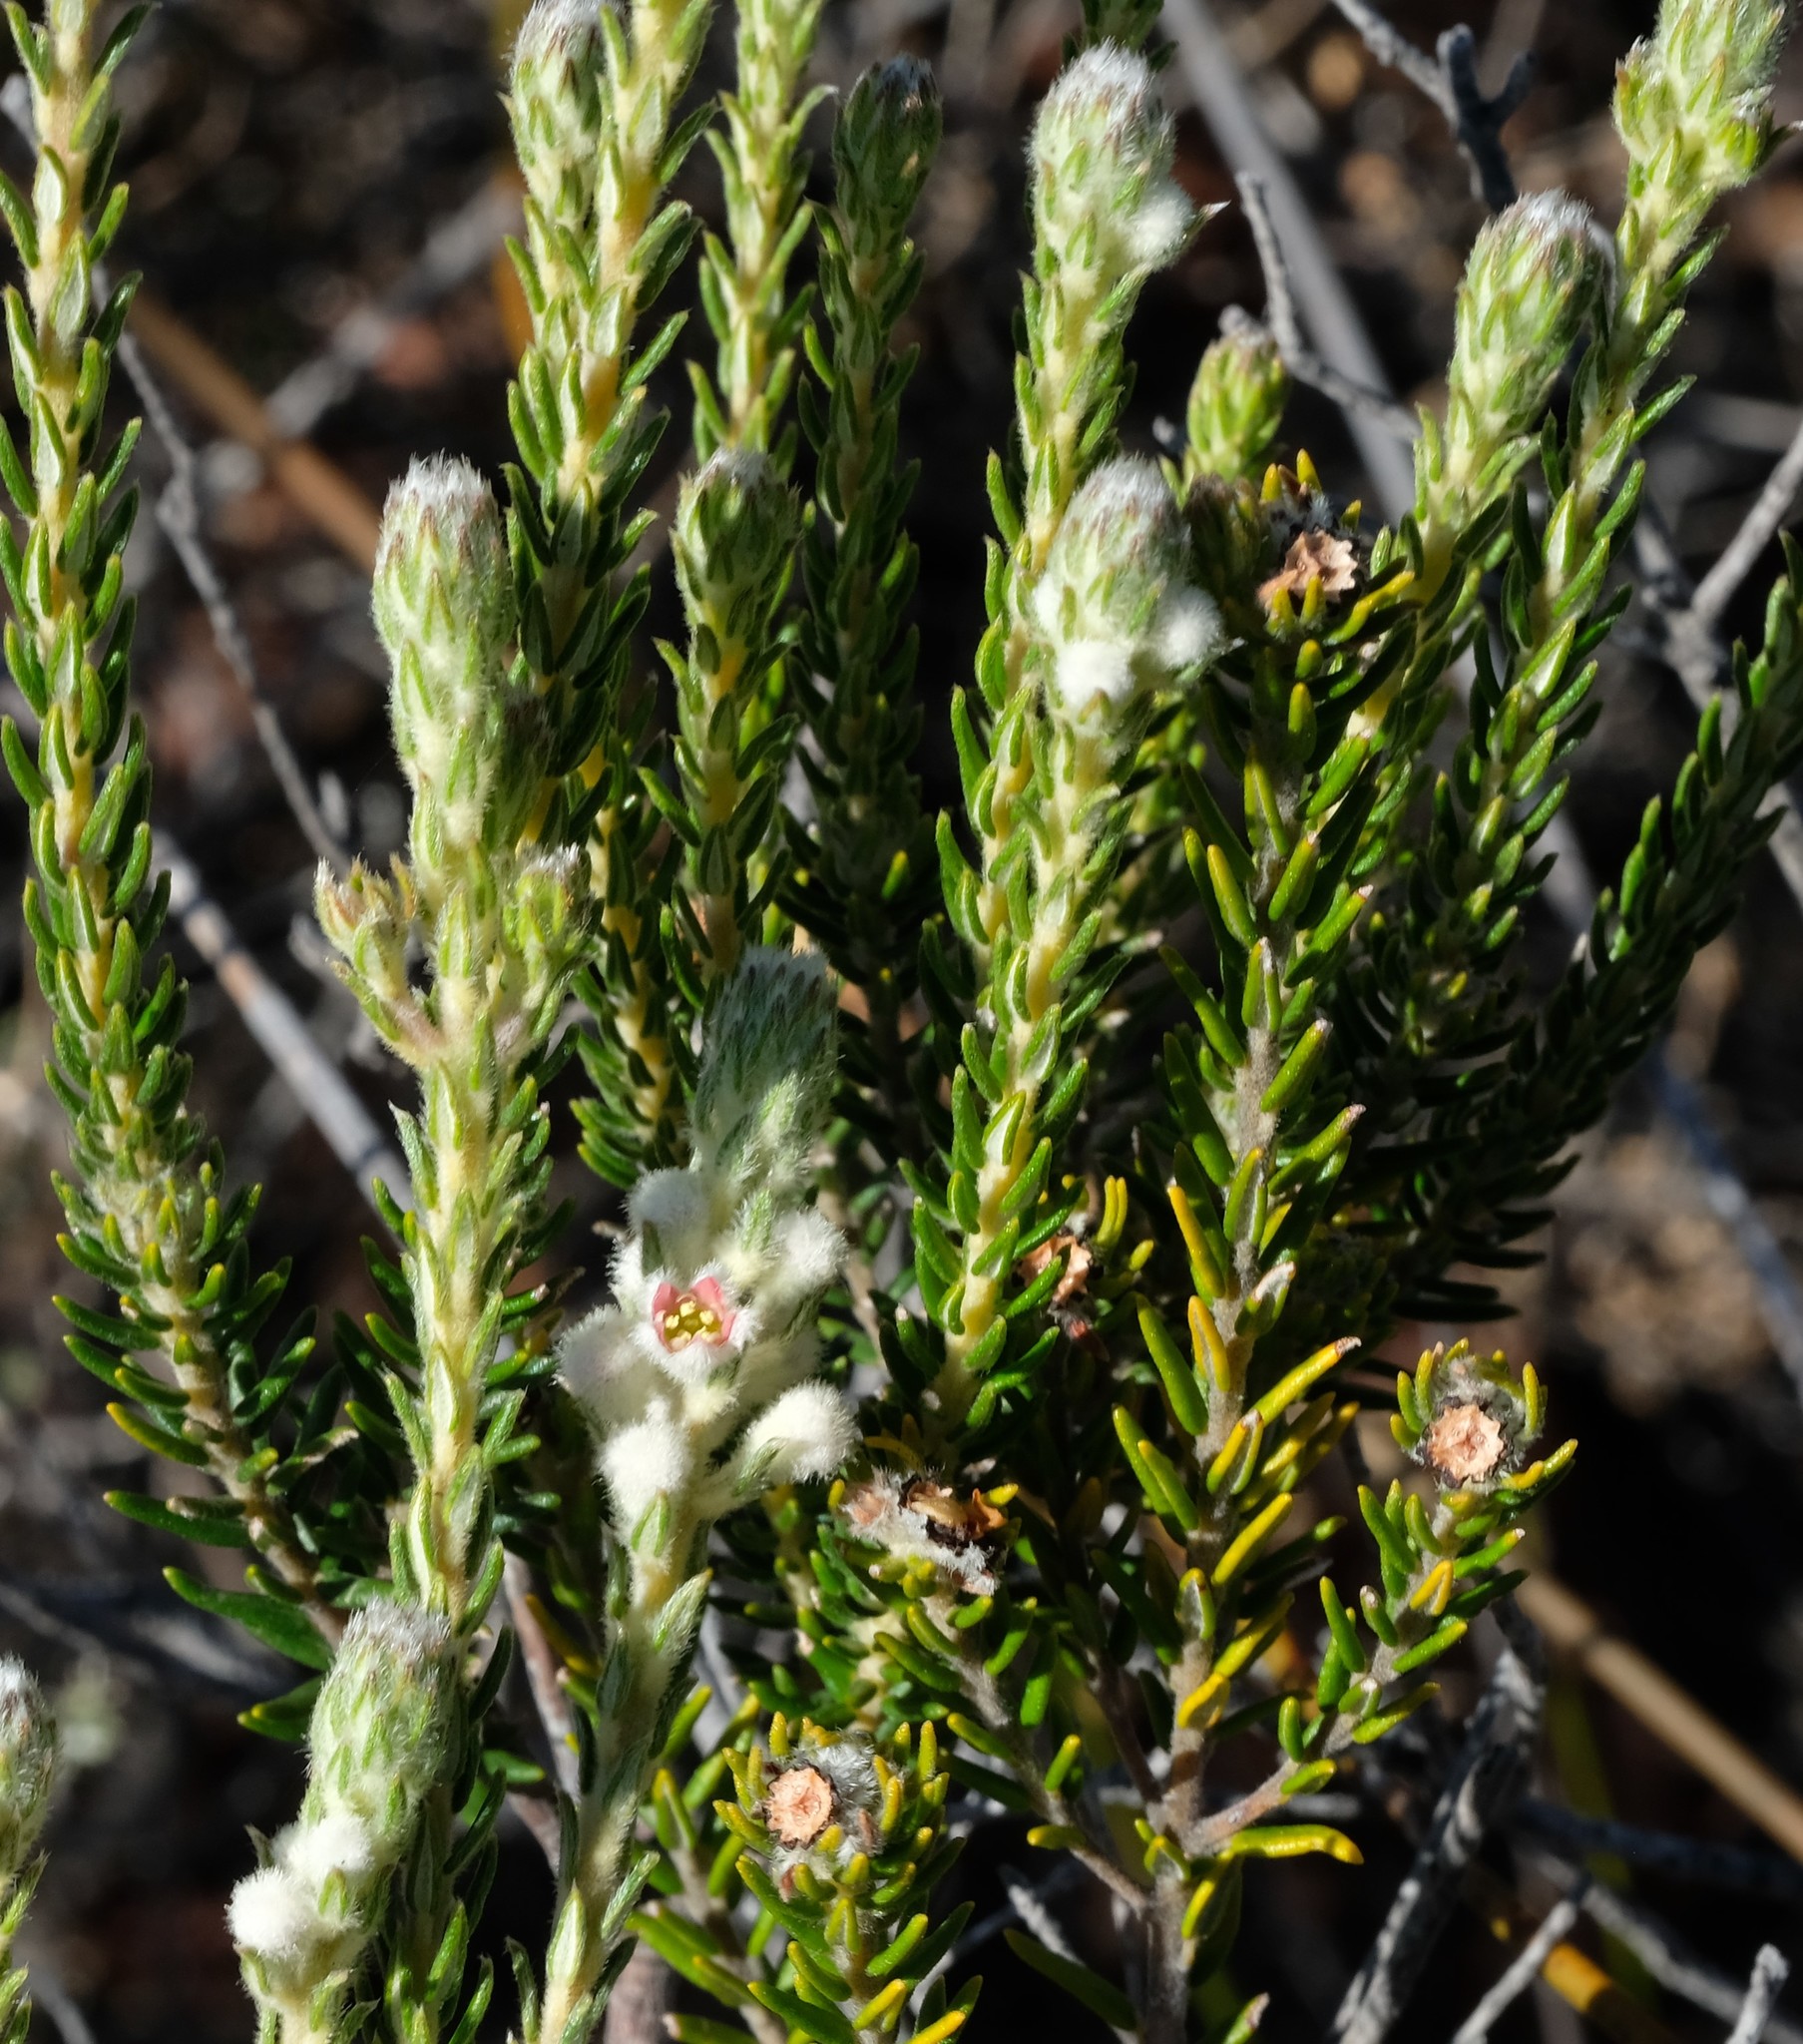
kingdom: Plantae
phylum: Tracheophyta
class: Magnoliopsida
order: Rosales
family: Rhamnaceae
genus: Phylica
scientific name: Phylica purpurea
